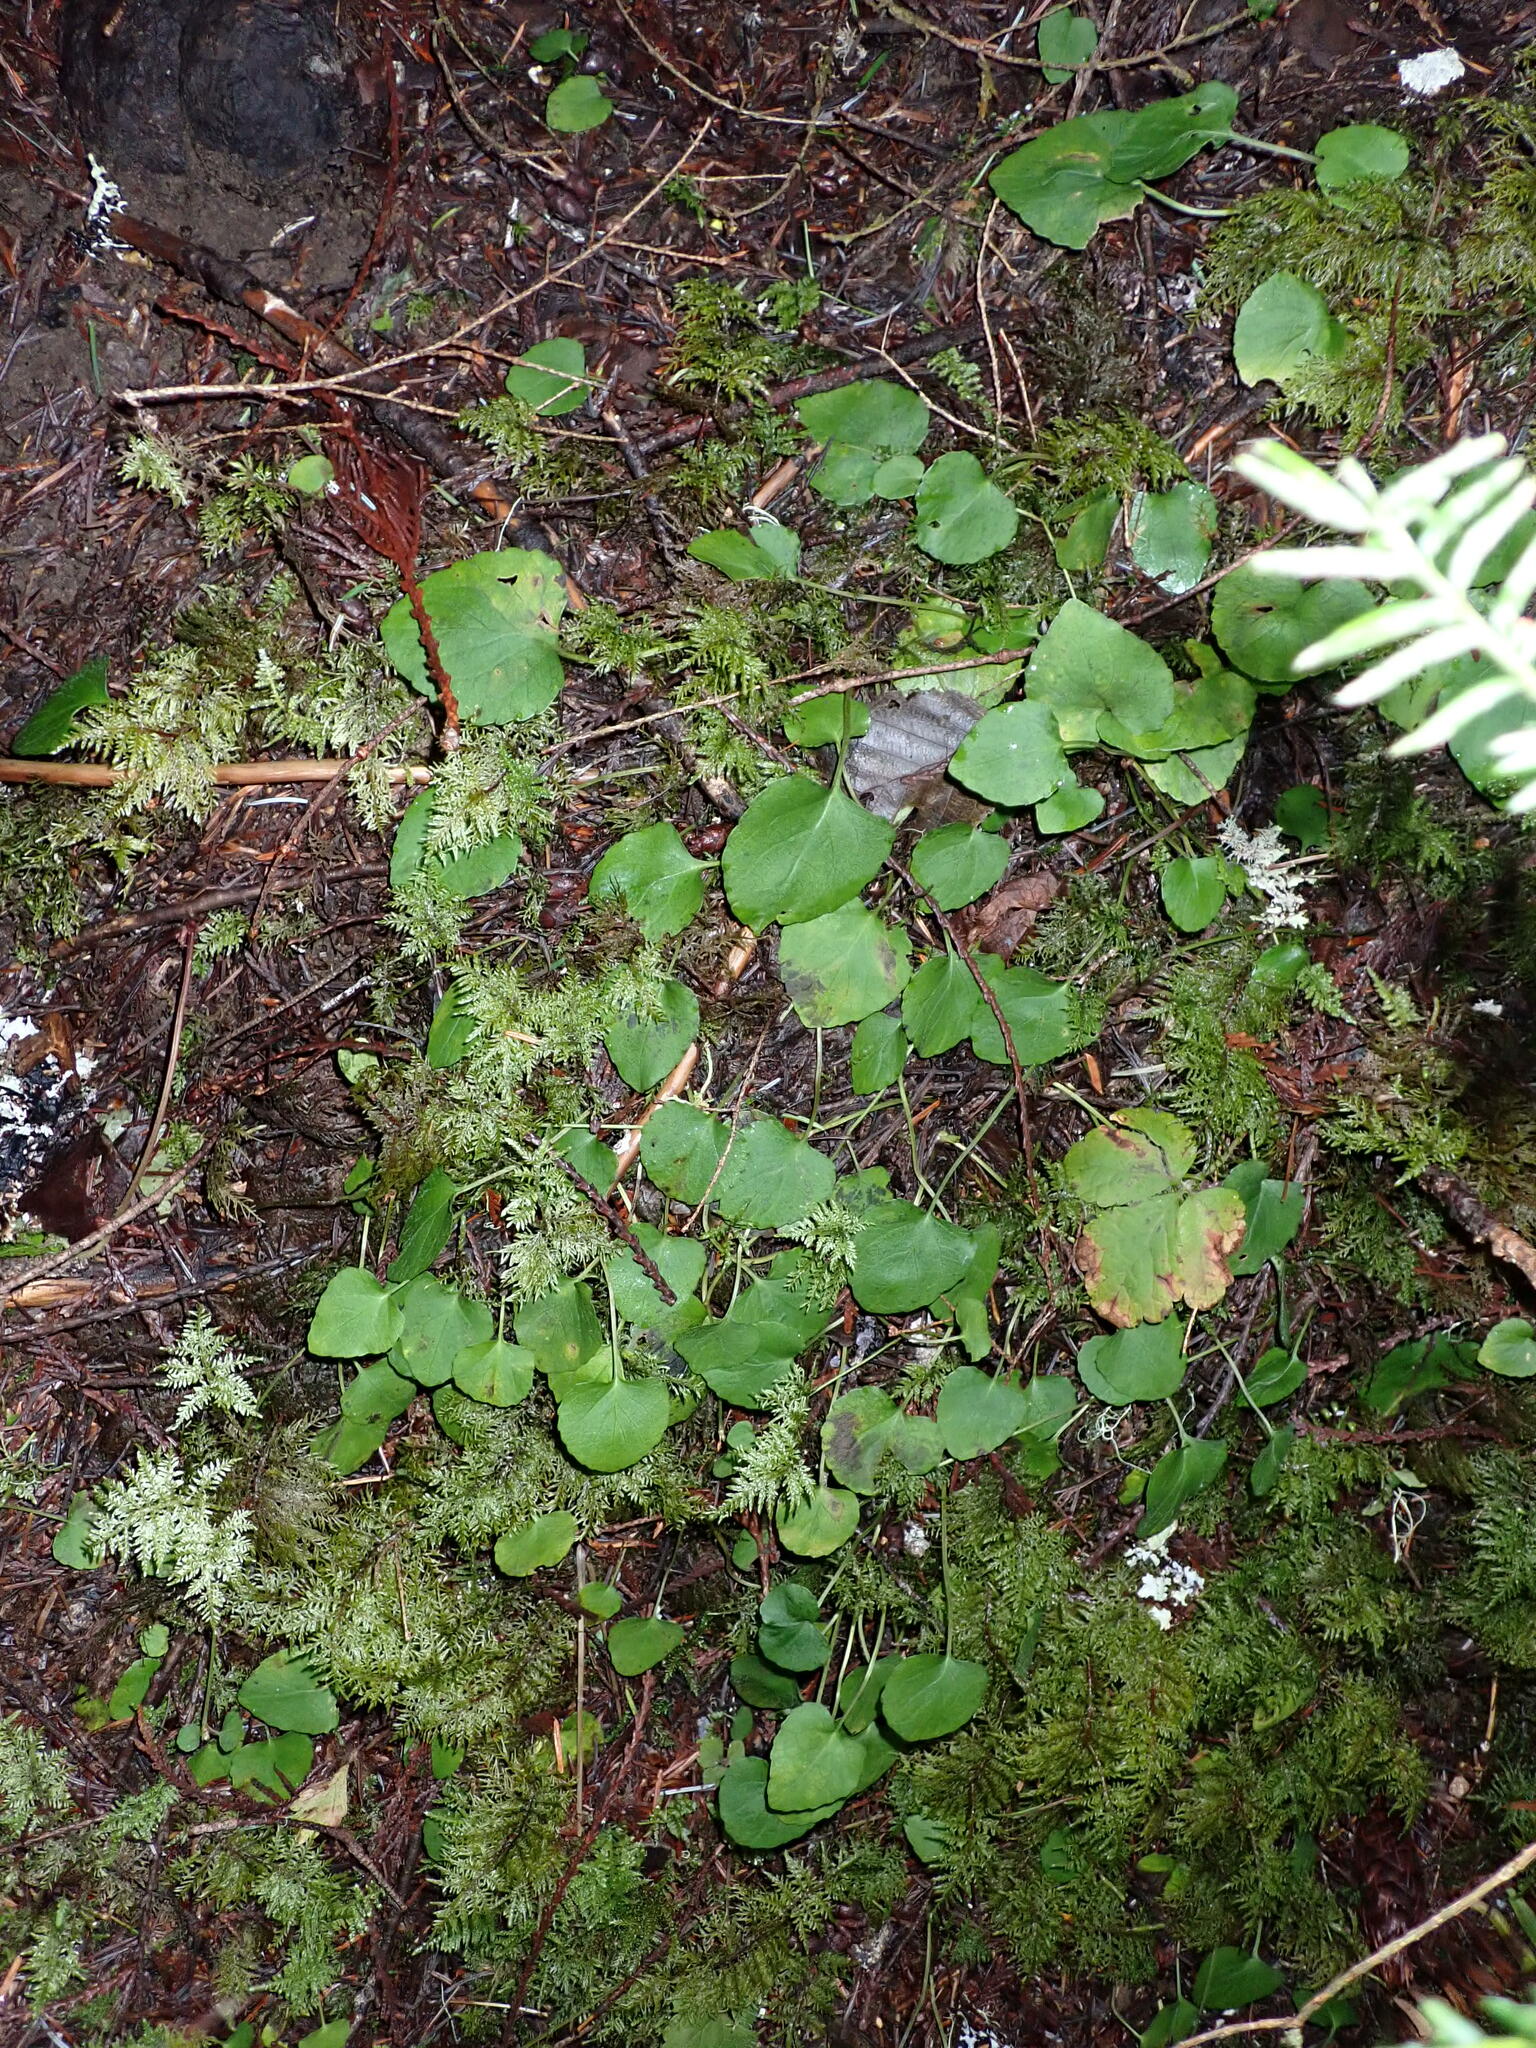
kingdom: Plantae
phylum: Tracheophyta
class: Magnoliopsida
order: Malpighiales
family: Violaceae
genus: Viola
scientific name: Viola sempervirens
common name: Evergreen violet
